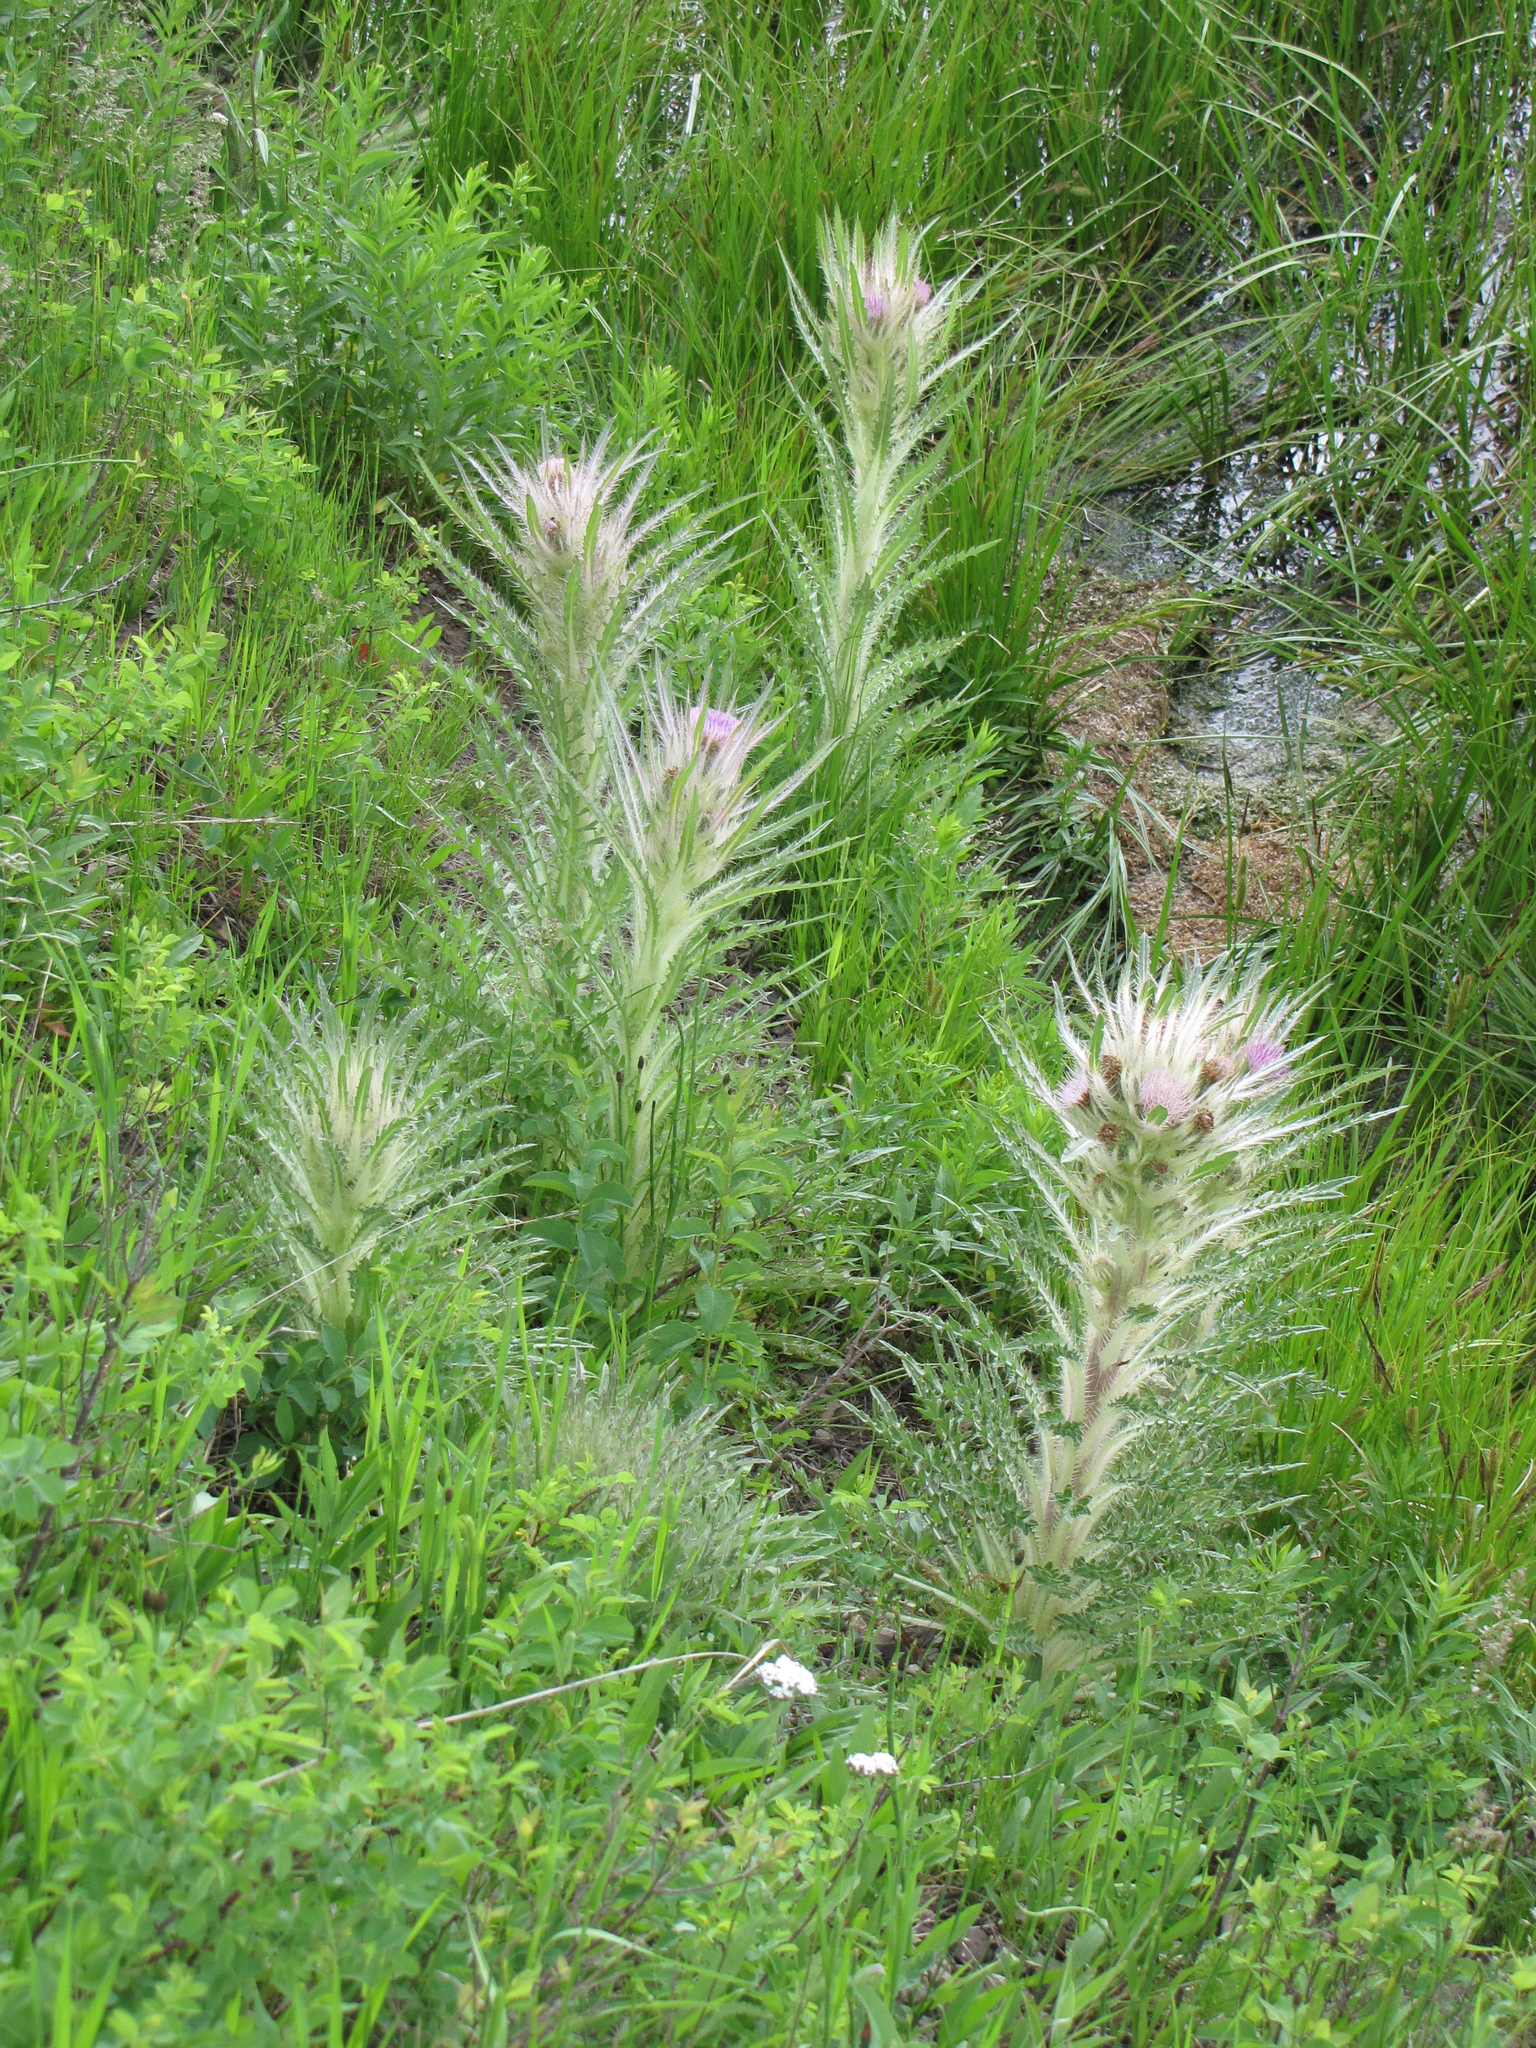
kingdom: Plantae
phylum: Tracheophyta
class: Magnoliopsida
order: Asterales
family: Asteraceae
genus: Cirsium
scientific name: Cirsium scariosum
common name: Meadow thistle
